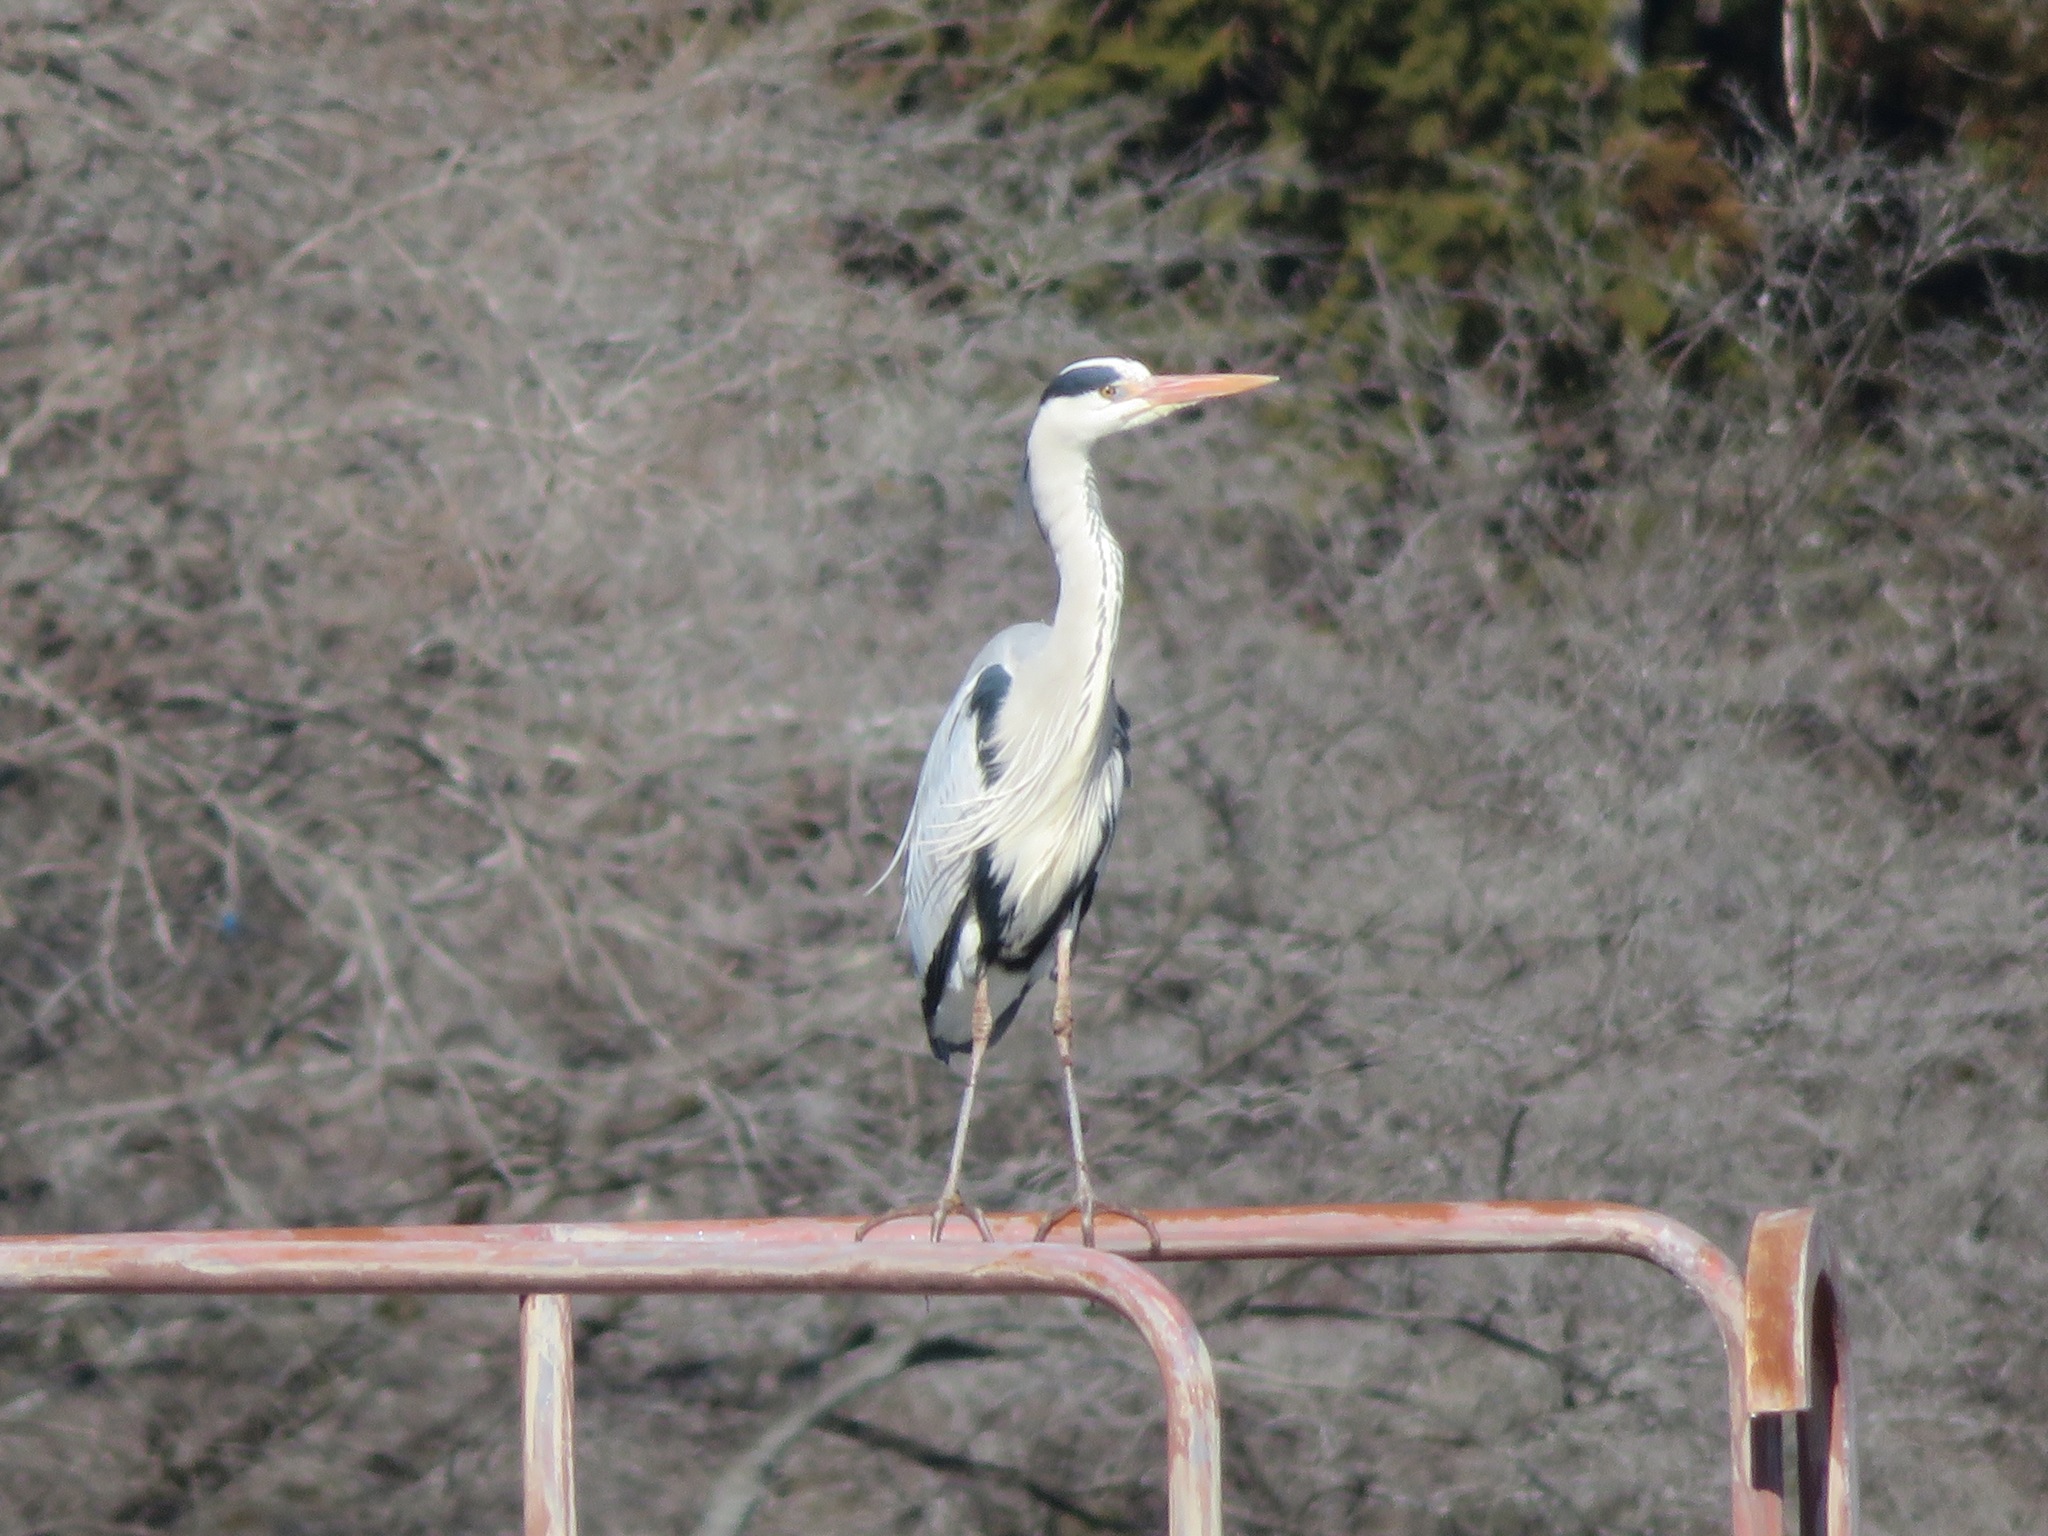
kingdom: Animalia
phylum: Chordata
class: Aves
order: Pelecaniformes
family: Ardeidae
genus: Ardea
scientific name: Ardea cinerea
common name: Grey heron
